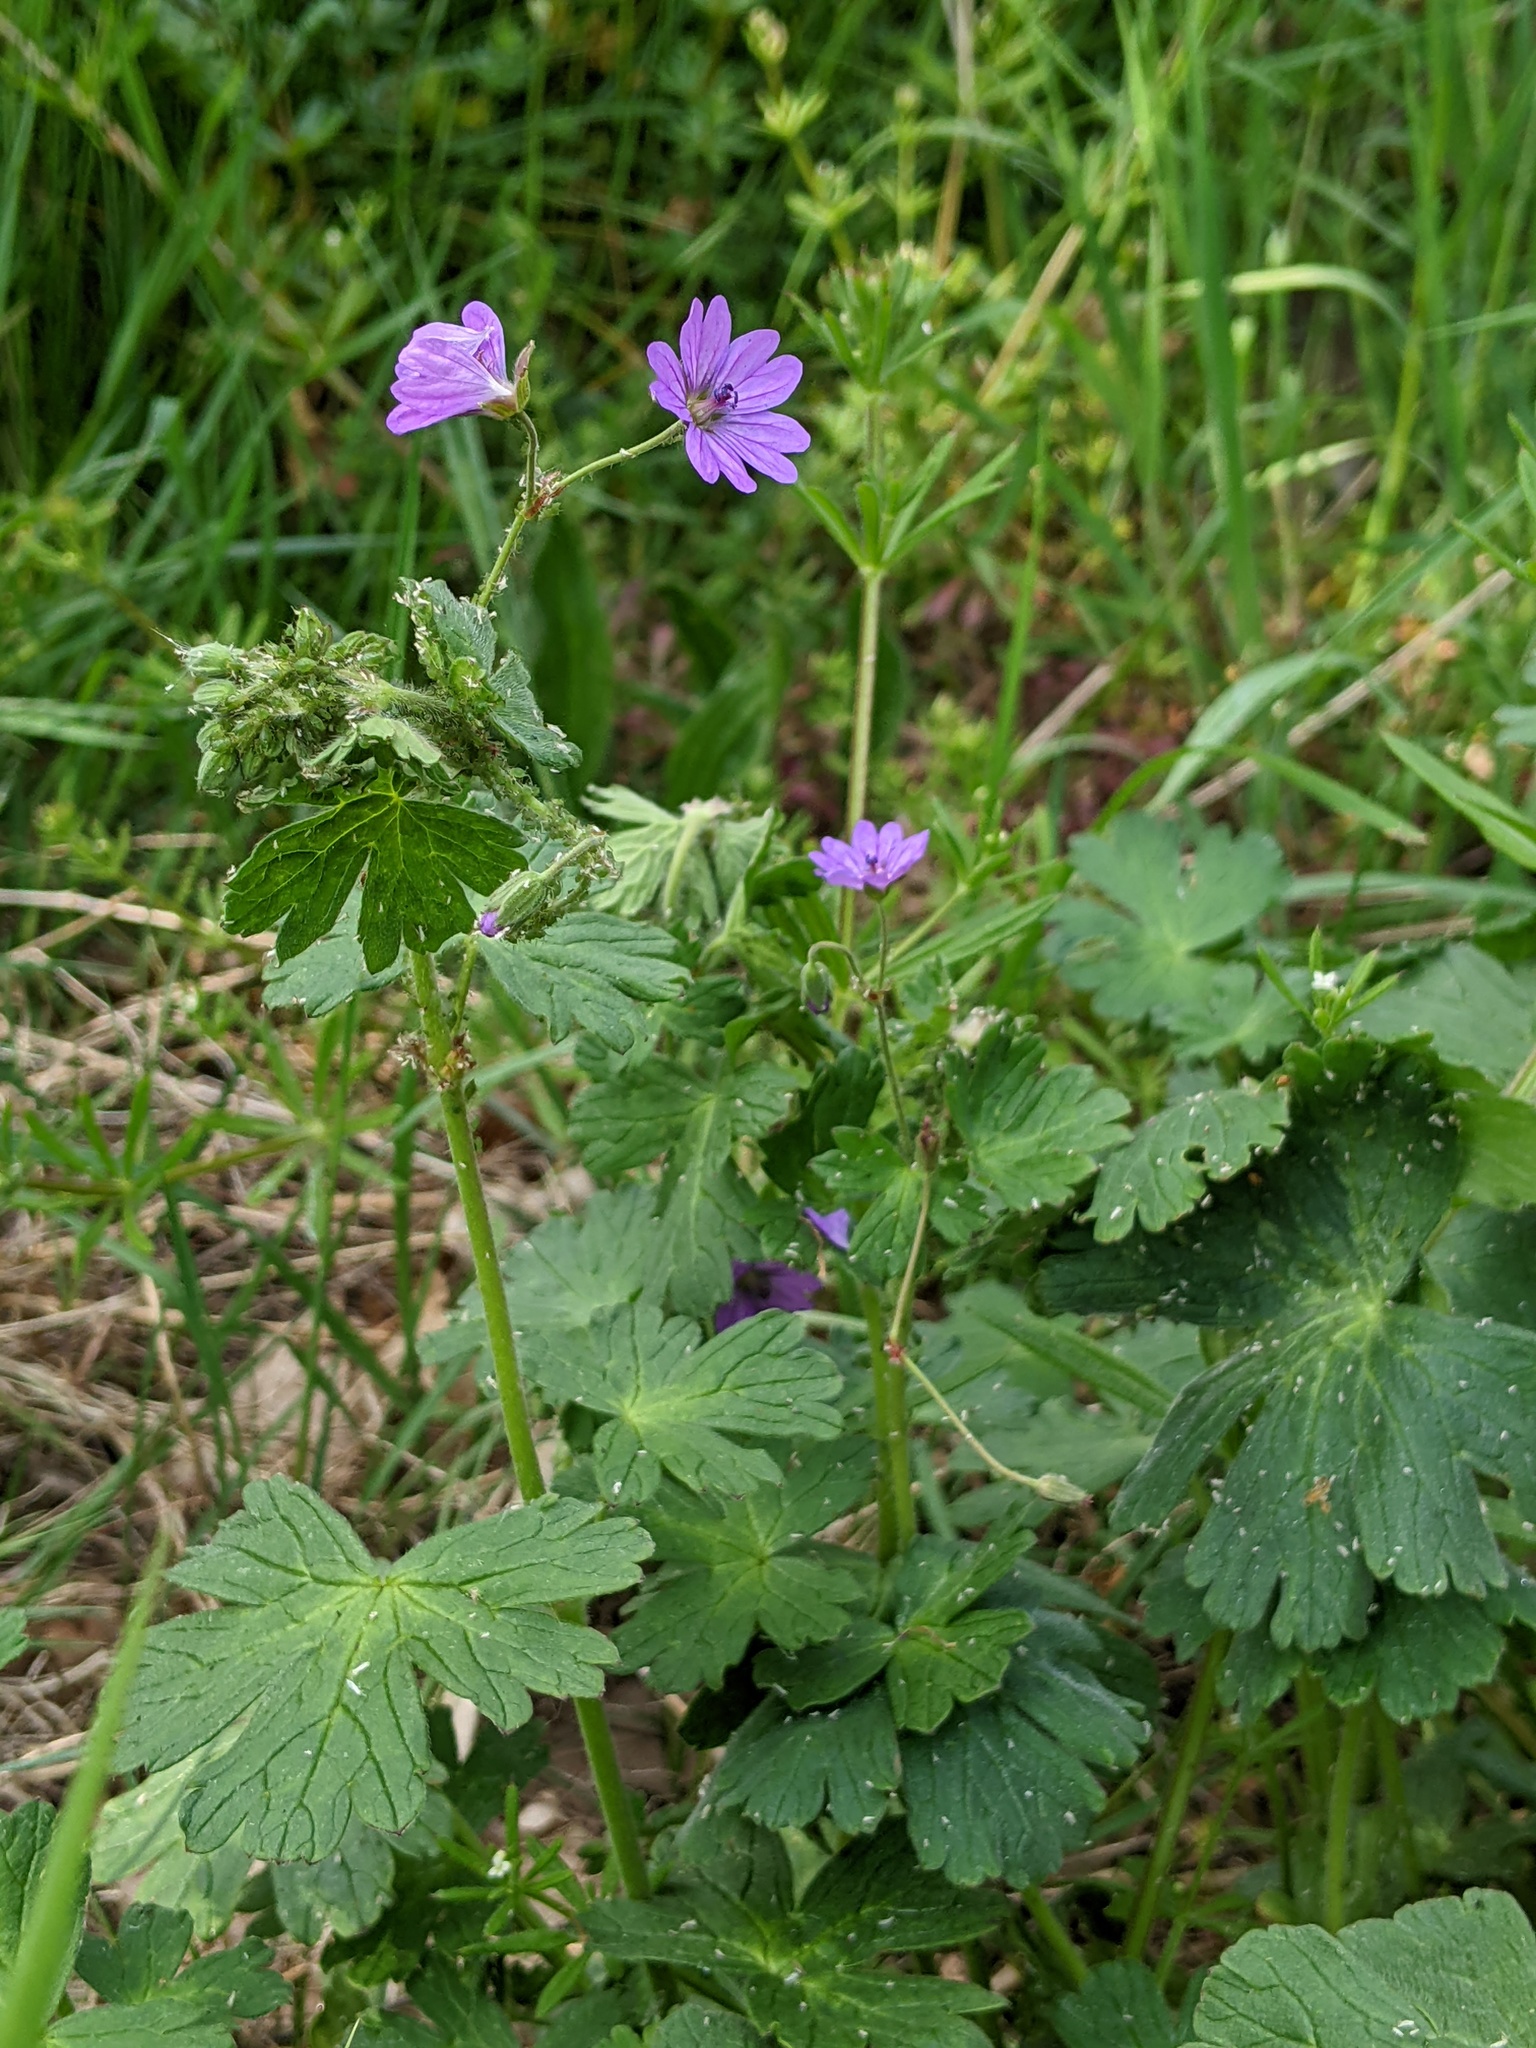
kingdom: Plantae
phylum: Tracheophyta
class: Magnoliopsida
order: Geraniales
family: Geraniaceae
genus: Geranium
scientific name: Geranium pyrenaicum
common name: Hedgerow crane's-bill
